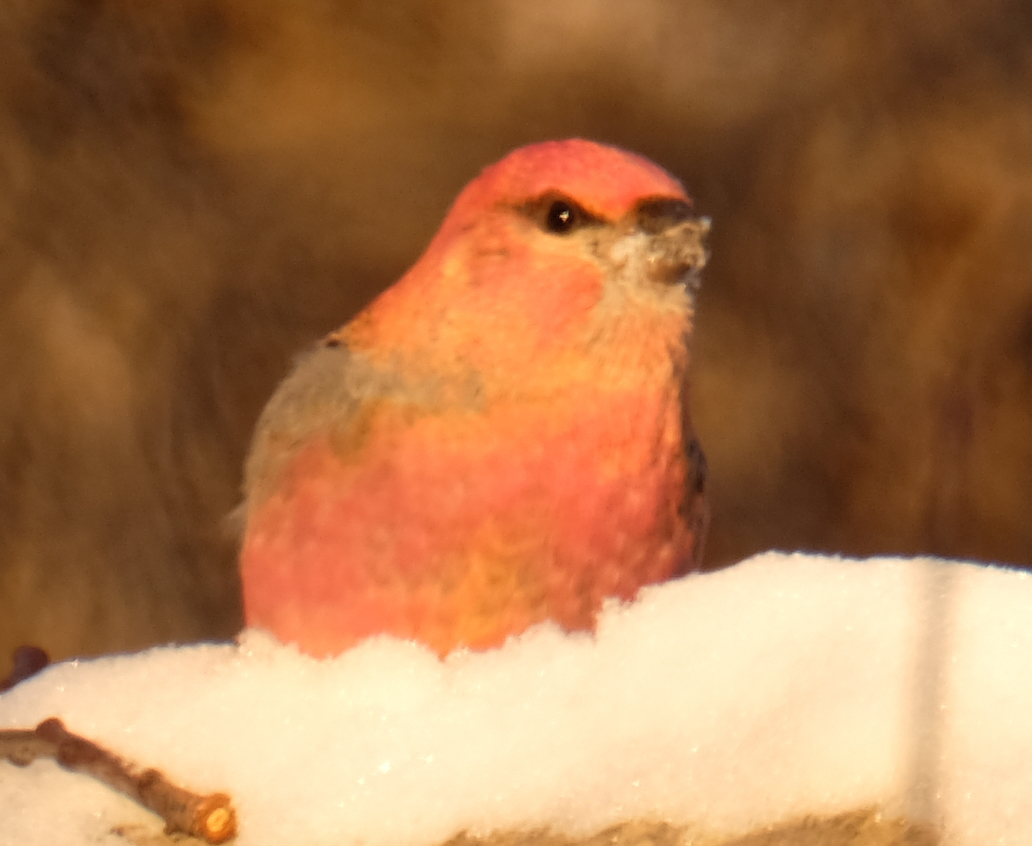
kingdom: Animalia
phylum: Chordata
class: Aves
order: Passeriformes
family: Fringillidae
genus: Pinicola
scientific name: Pinicola enucleator
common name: Pine grosbeak
